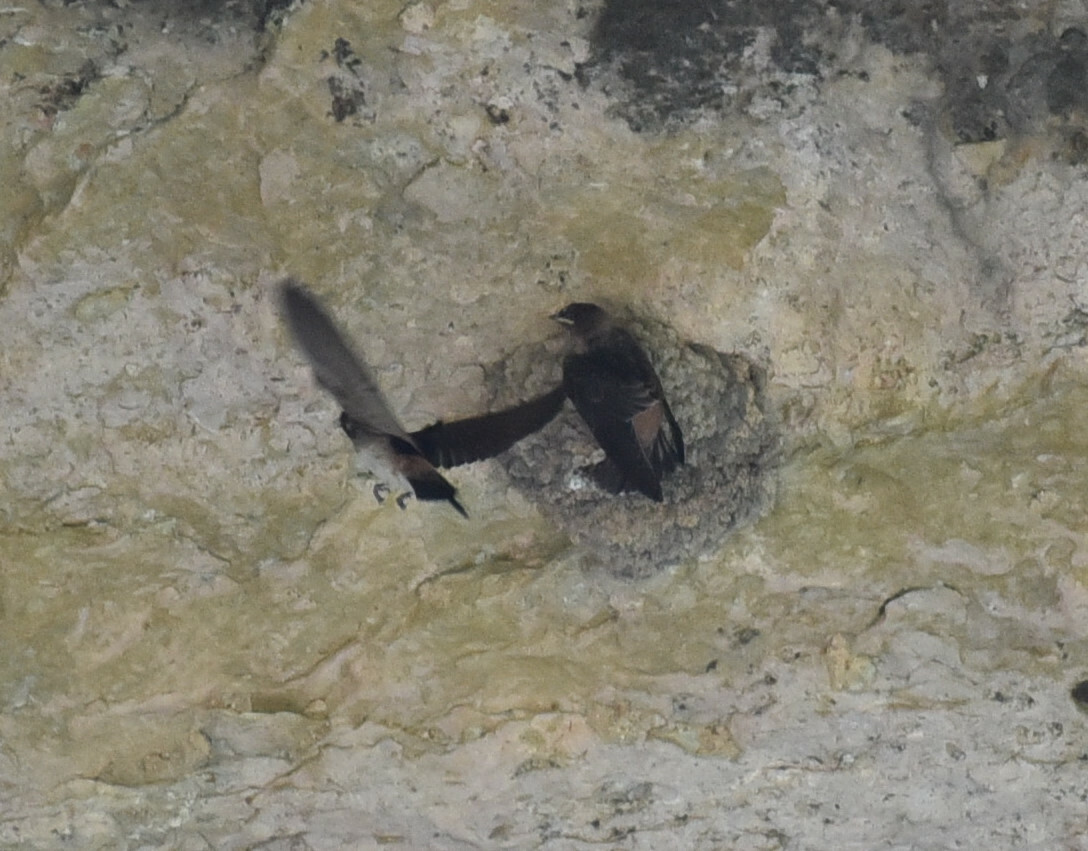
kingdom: Animalia
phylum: Chordata
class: Aves
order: Passeriformes
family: Hirundinidae
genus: Petrochelidon
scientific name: Petrochelidon pyrrhonota
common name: American cliff swallow
